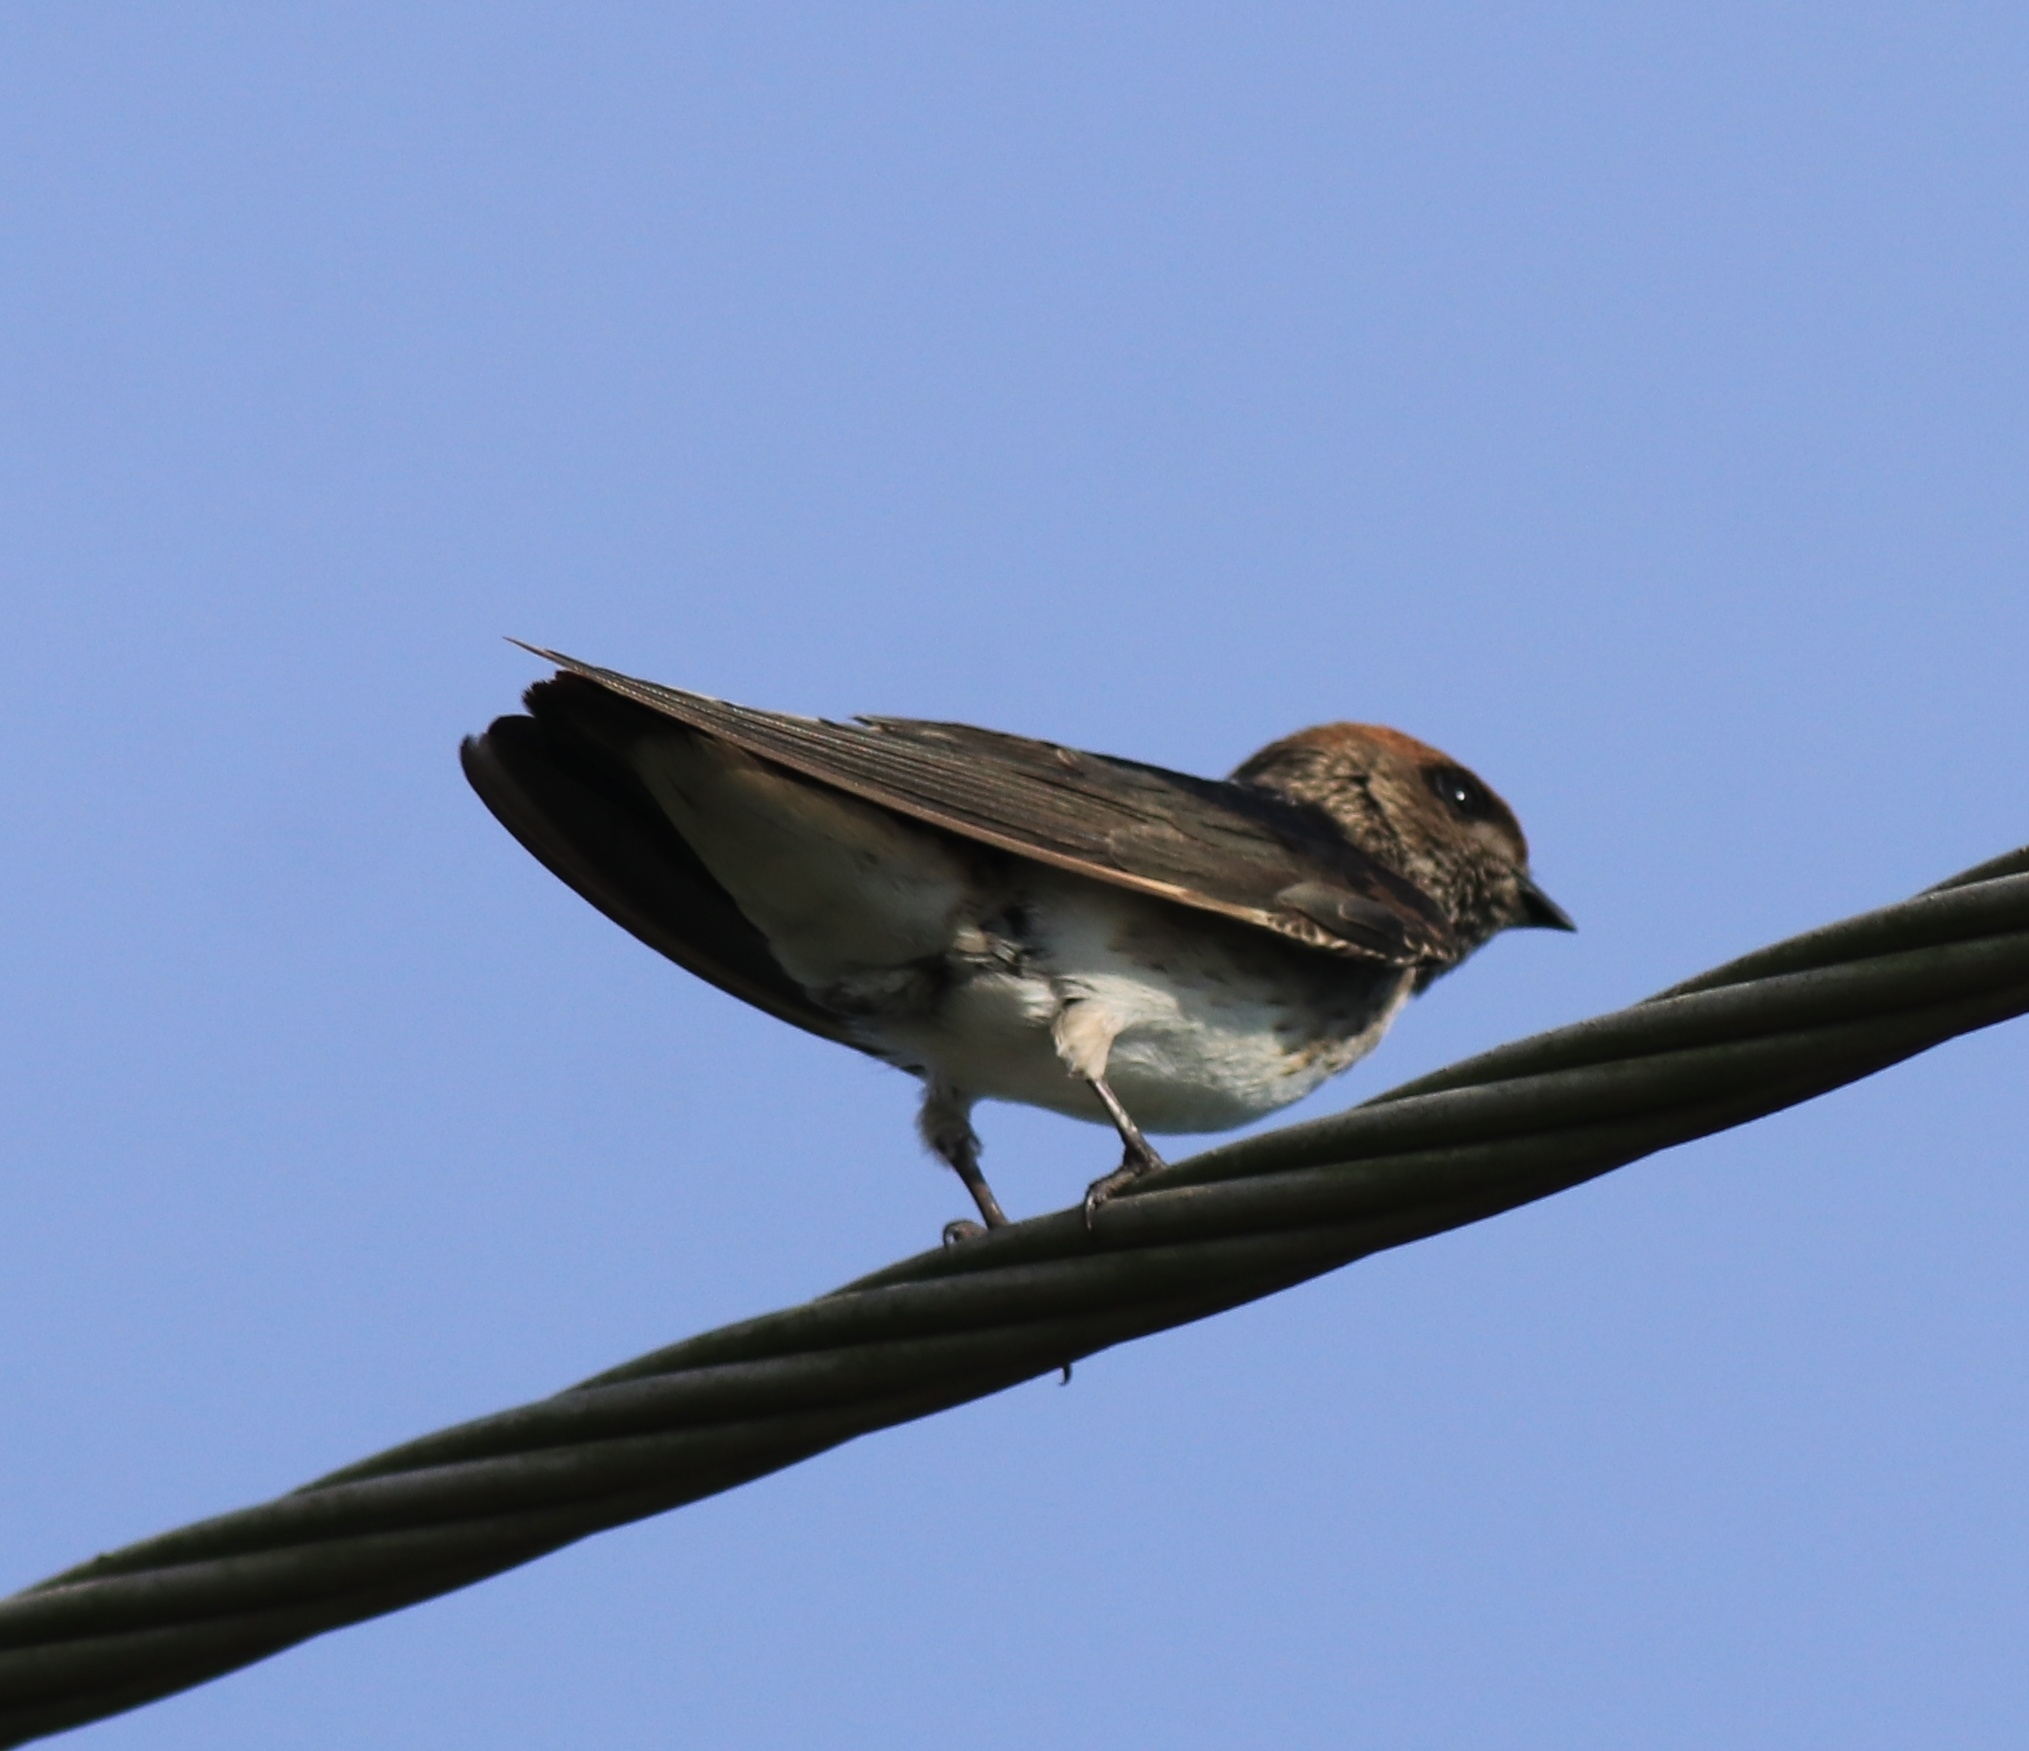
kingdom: Animalia
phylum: Chordata
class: Aves
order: Passeriformes
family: Hirundinidae
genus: Petrochelidon
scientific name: Petrochelidon fluvicola
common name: Streak-throated swallow
